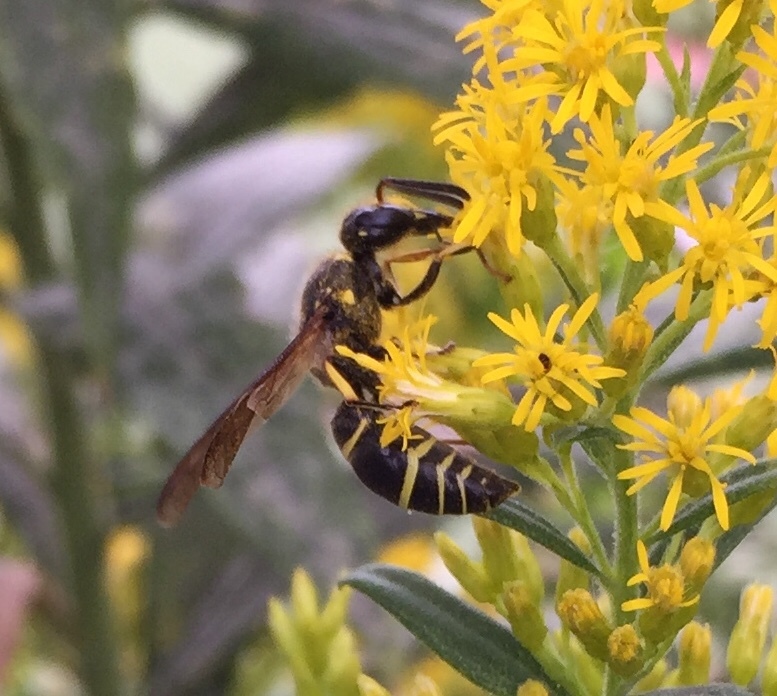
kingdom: Animalia
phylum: Arthropoda
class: Insecta
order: Hymenoptera
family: Vespidae
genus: Ancistrocerus
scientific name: Ancistrocerus
